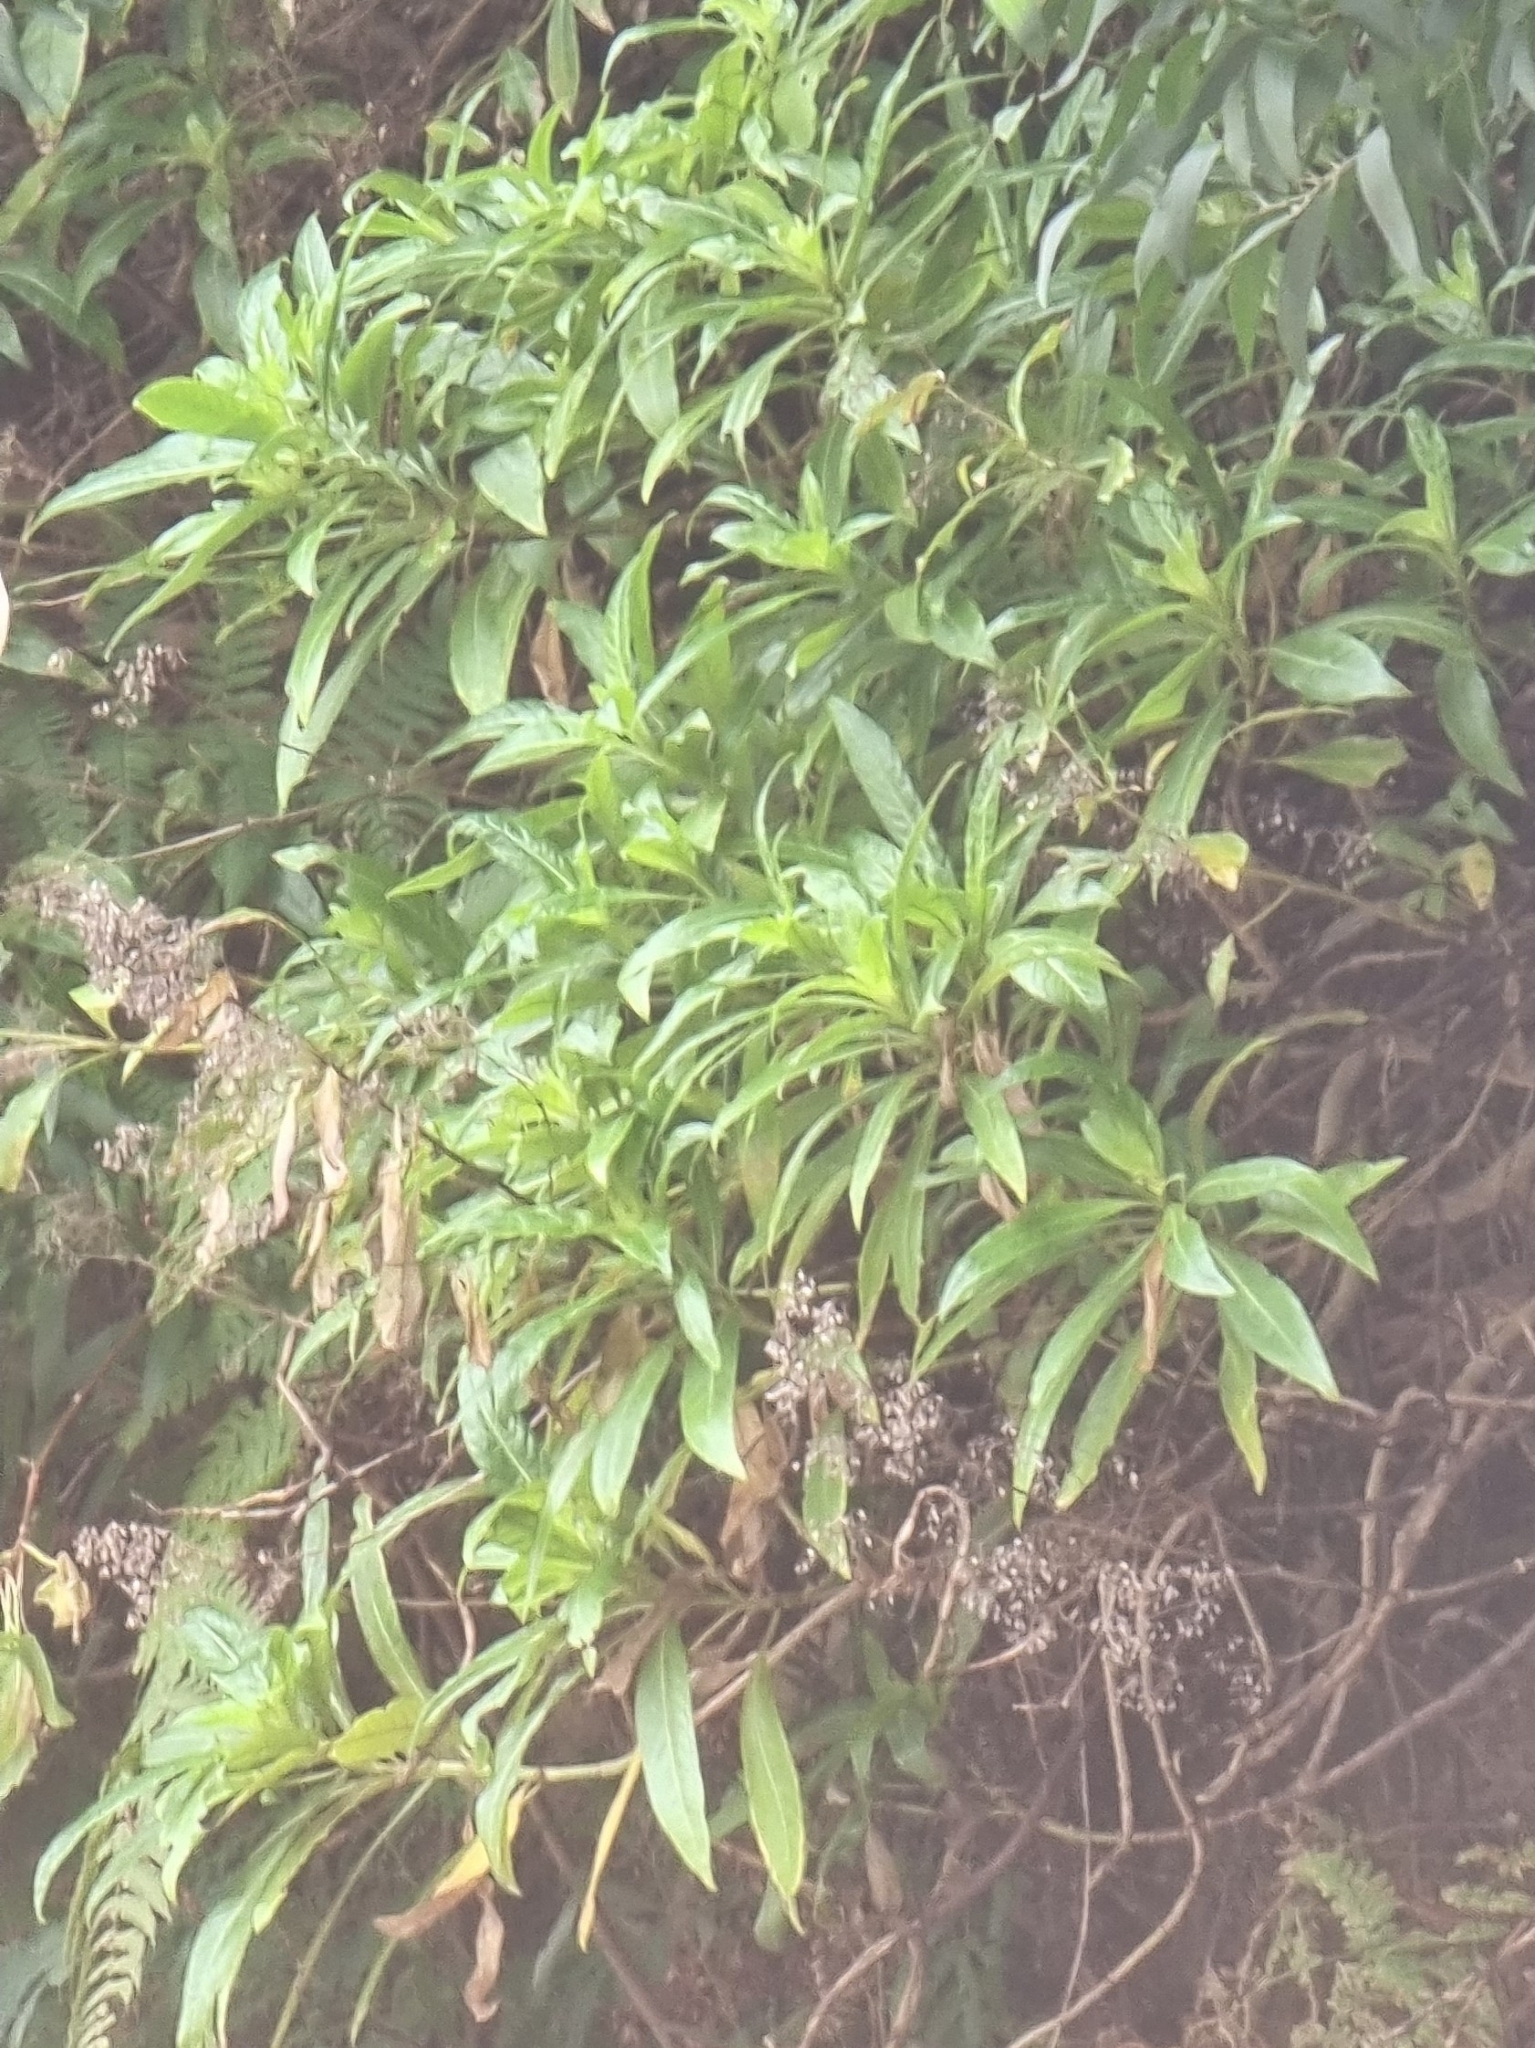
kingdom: Plantae
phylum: Tracheophyta
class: Magnoliopsida
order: Gentianales
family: Rubiaceae
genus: Phyllis
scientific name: Phyllis nobla
